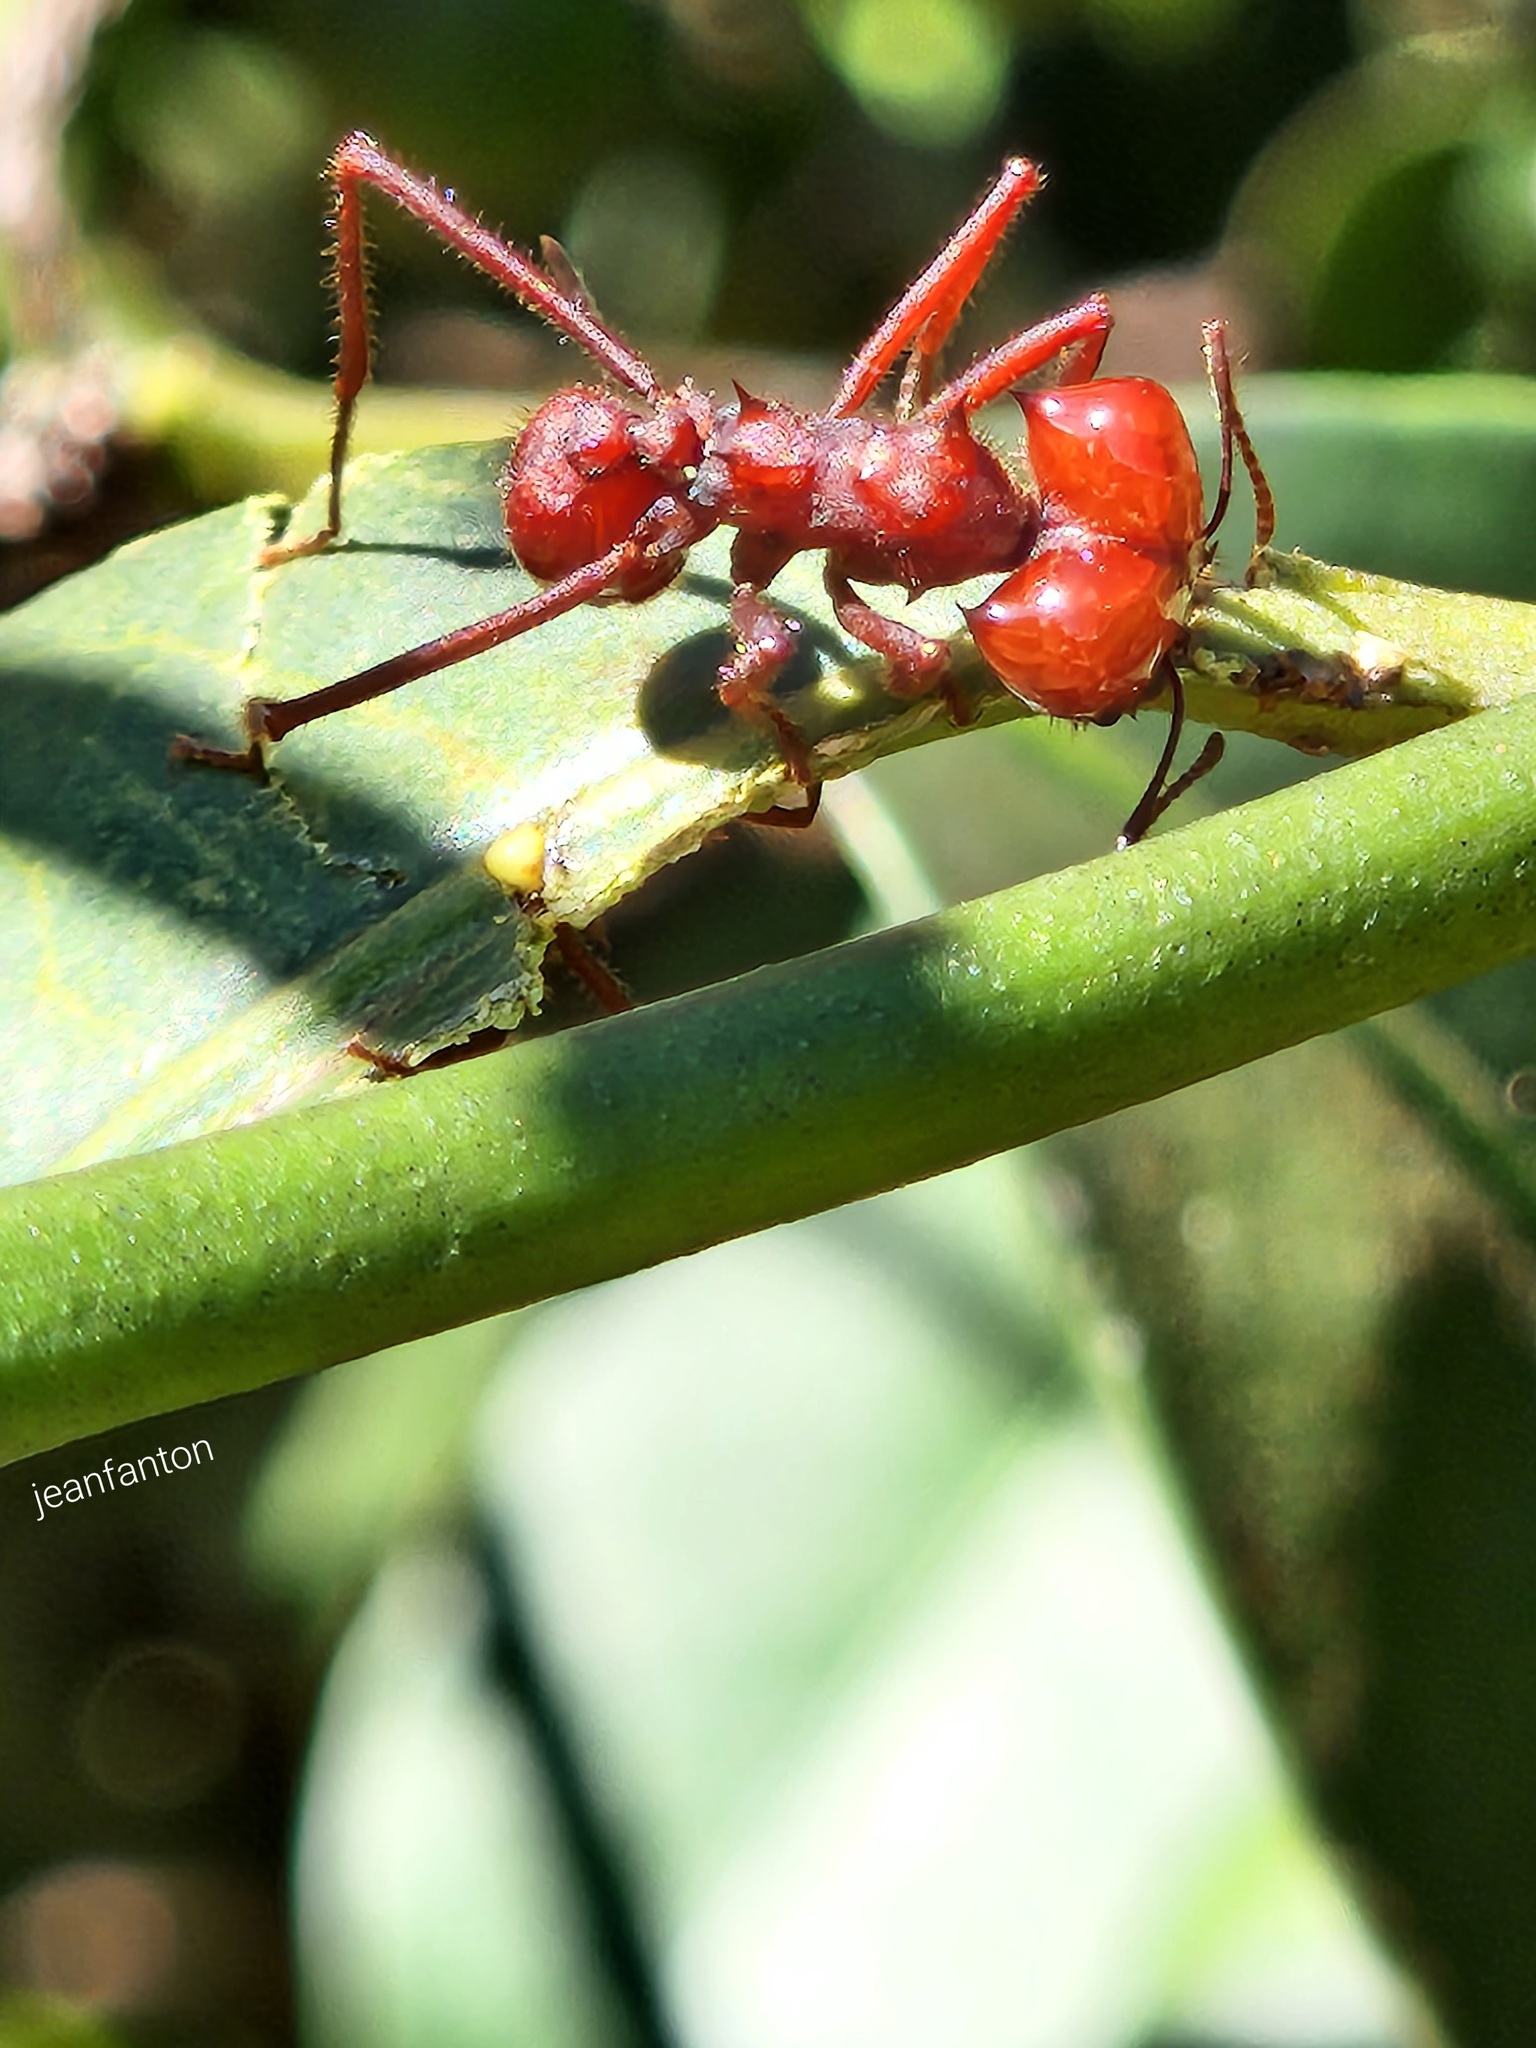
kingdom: Animalia
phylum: Arthropoda
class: Insecta
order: Hymenoptera
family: Formicidae
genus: Atta
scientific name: Atta laevigata
